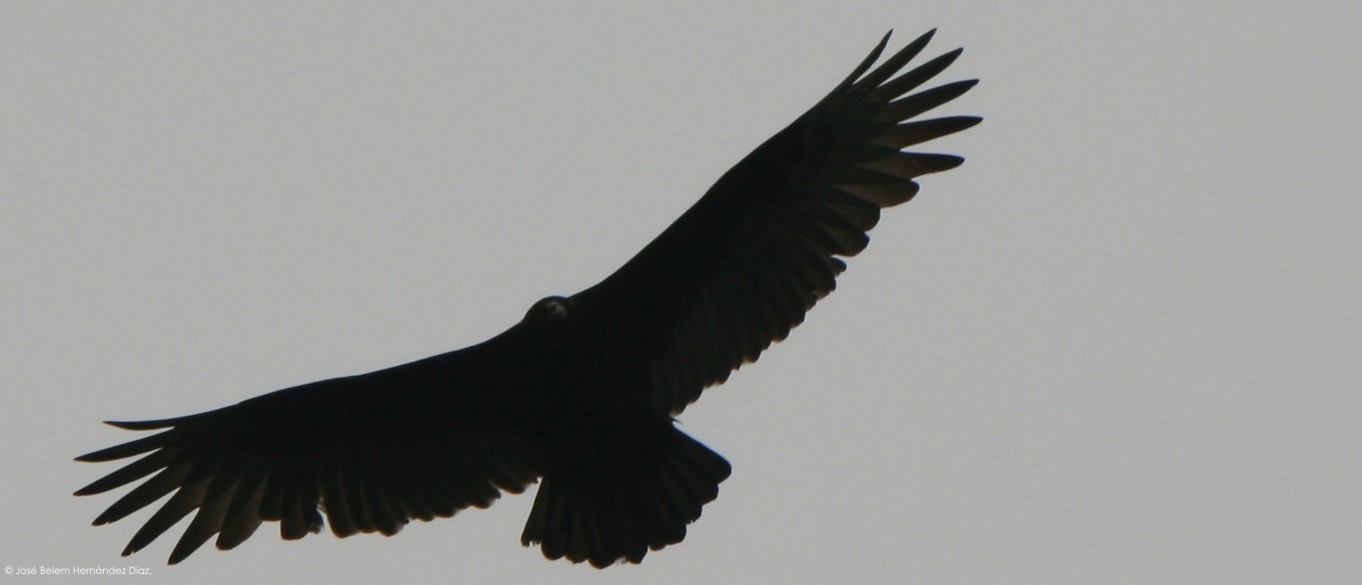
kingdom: Animalia
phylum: Chordata
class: Aves
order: Accipitriformes
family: Cathartidae
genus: Coragyps
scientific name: Coragyps atratus
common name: Black vulture
